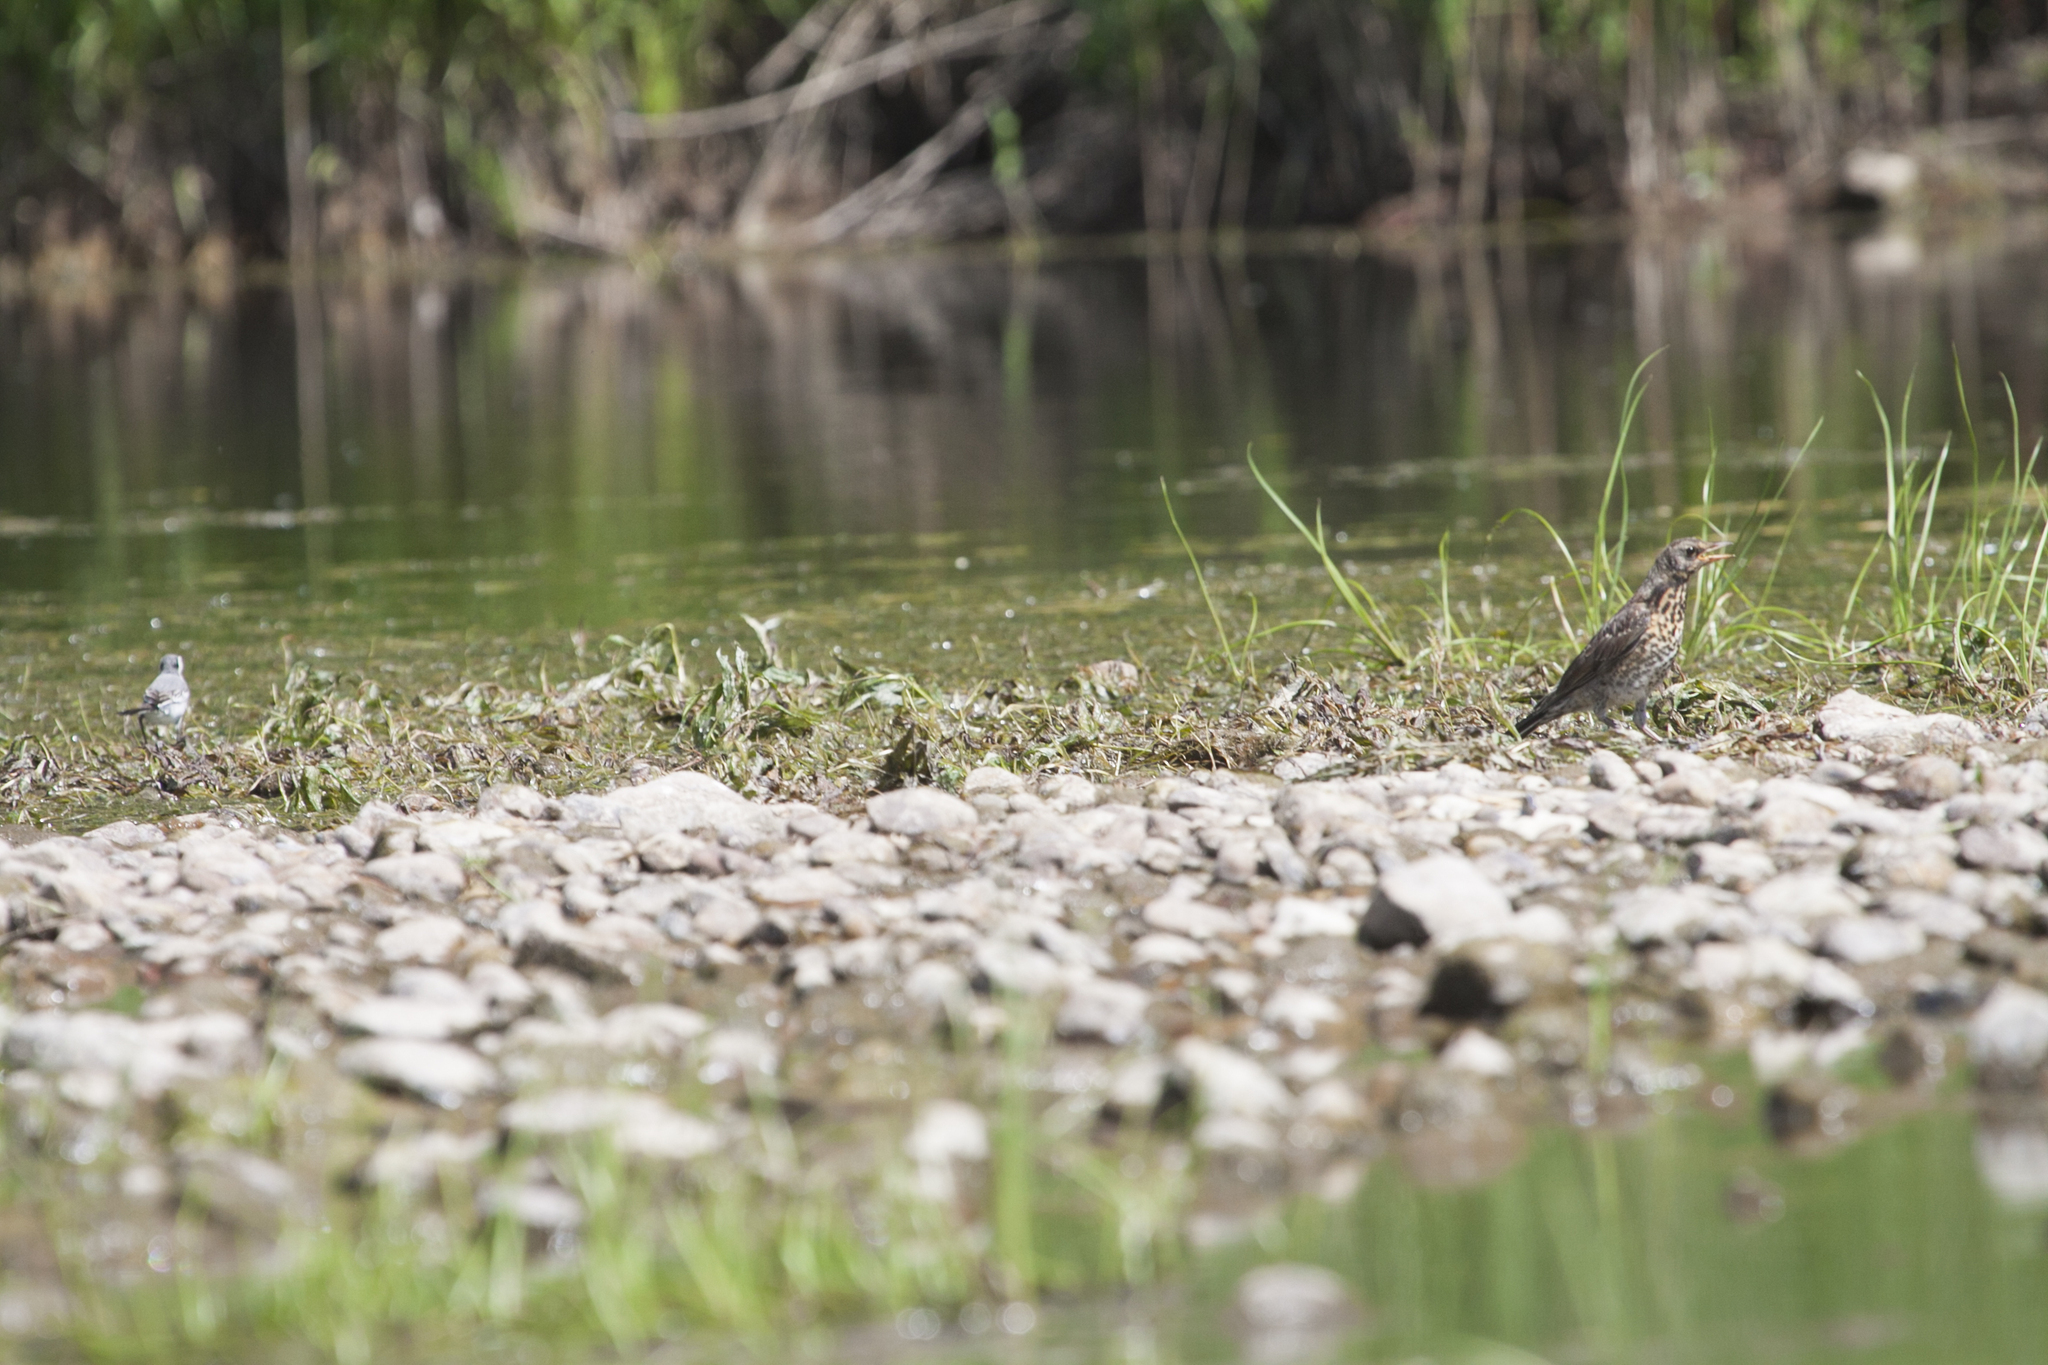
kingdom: Animalia
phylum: Chordata
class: Aves
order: Passeriformes
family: Motacillidae
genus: Motacilla
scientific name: Motacilla alba
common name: White wagtail
